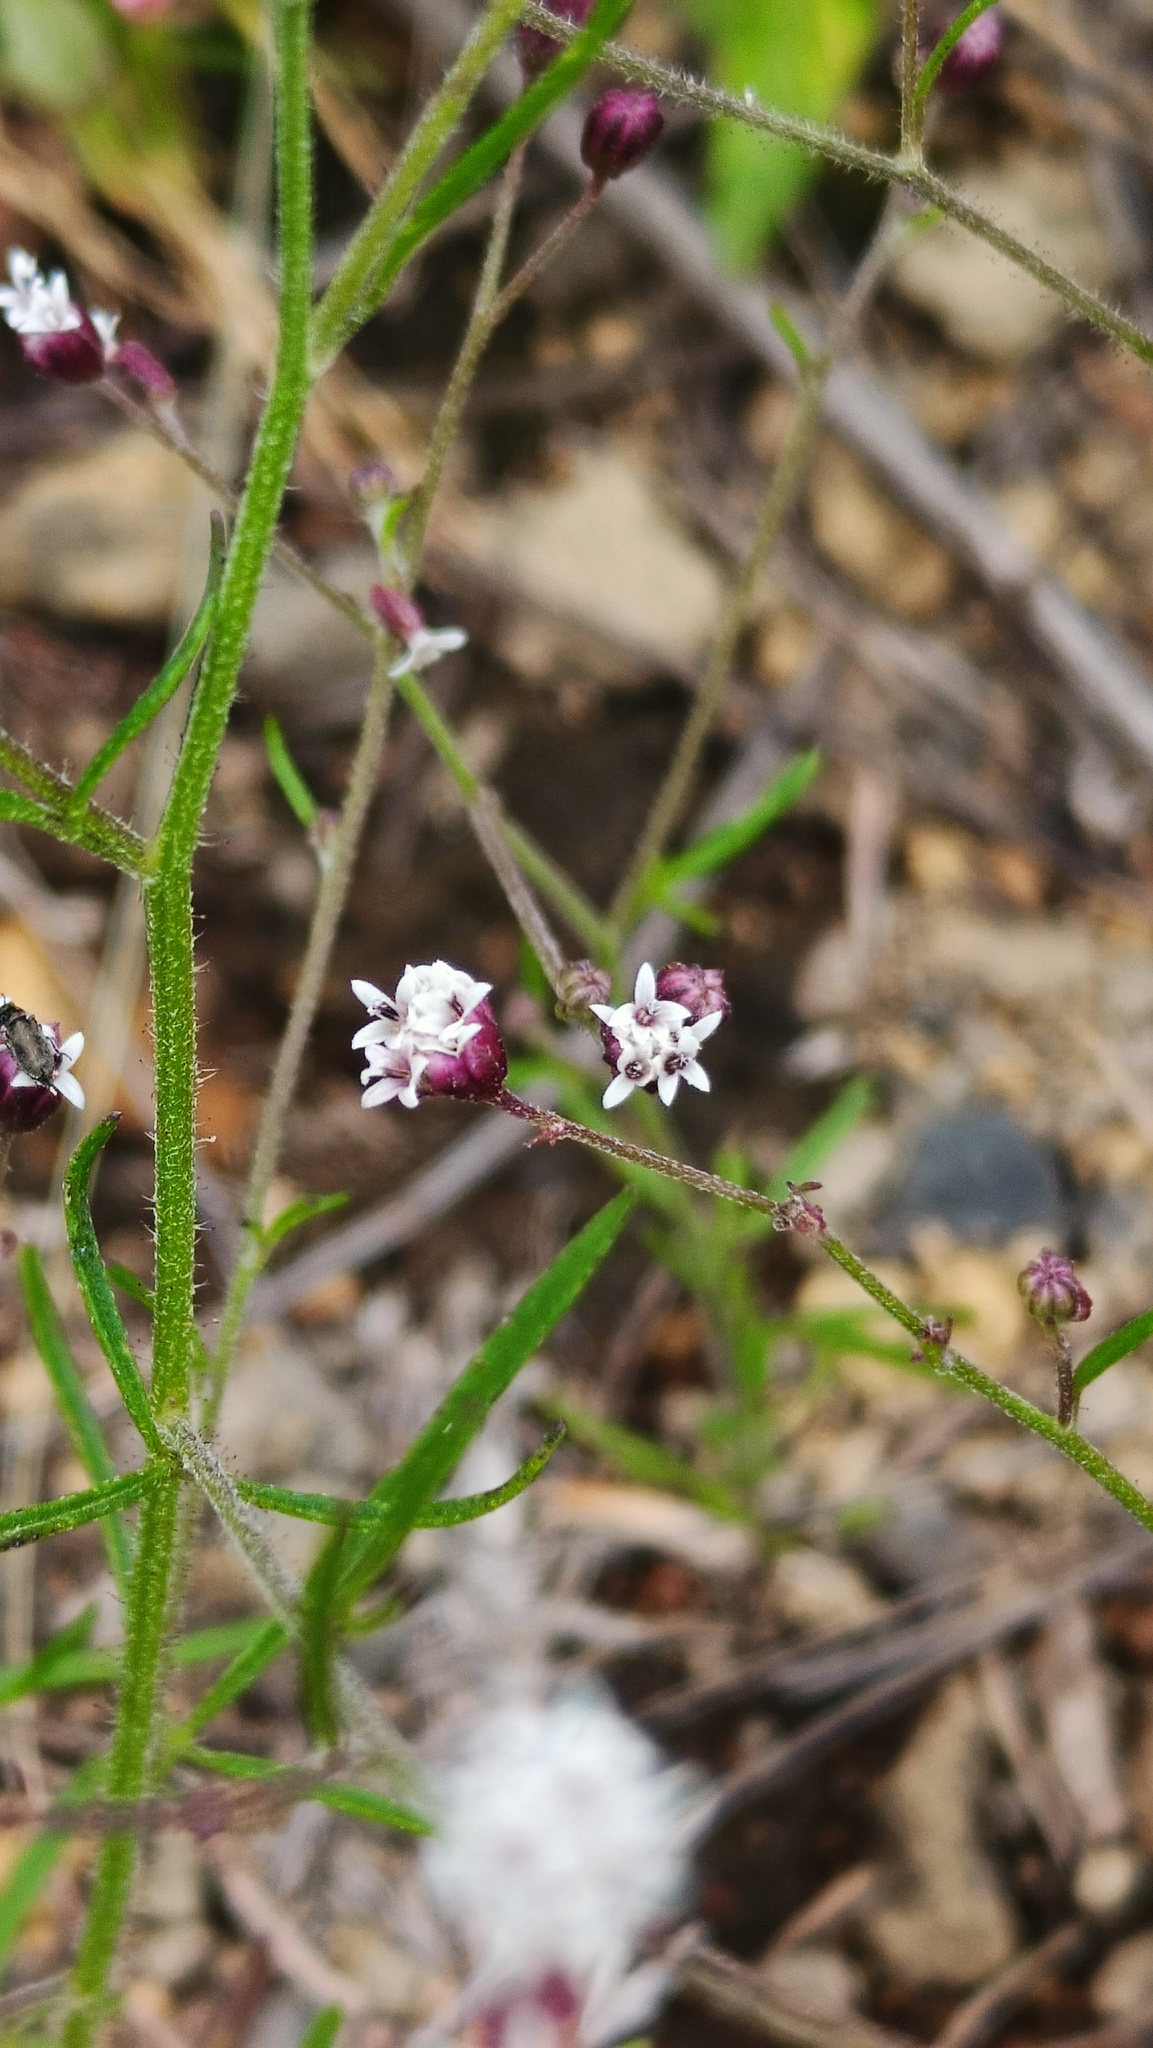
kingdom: Plantae
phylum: Tracheophyta
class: Magnoliopsida
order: Asterales
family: Asteraceae
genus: Florestina
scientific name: Florestina pedata
